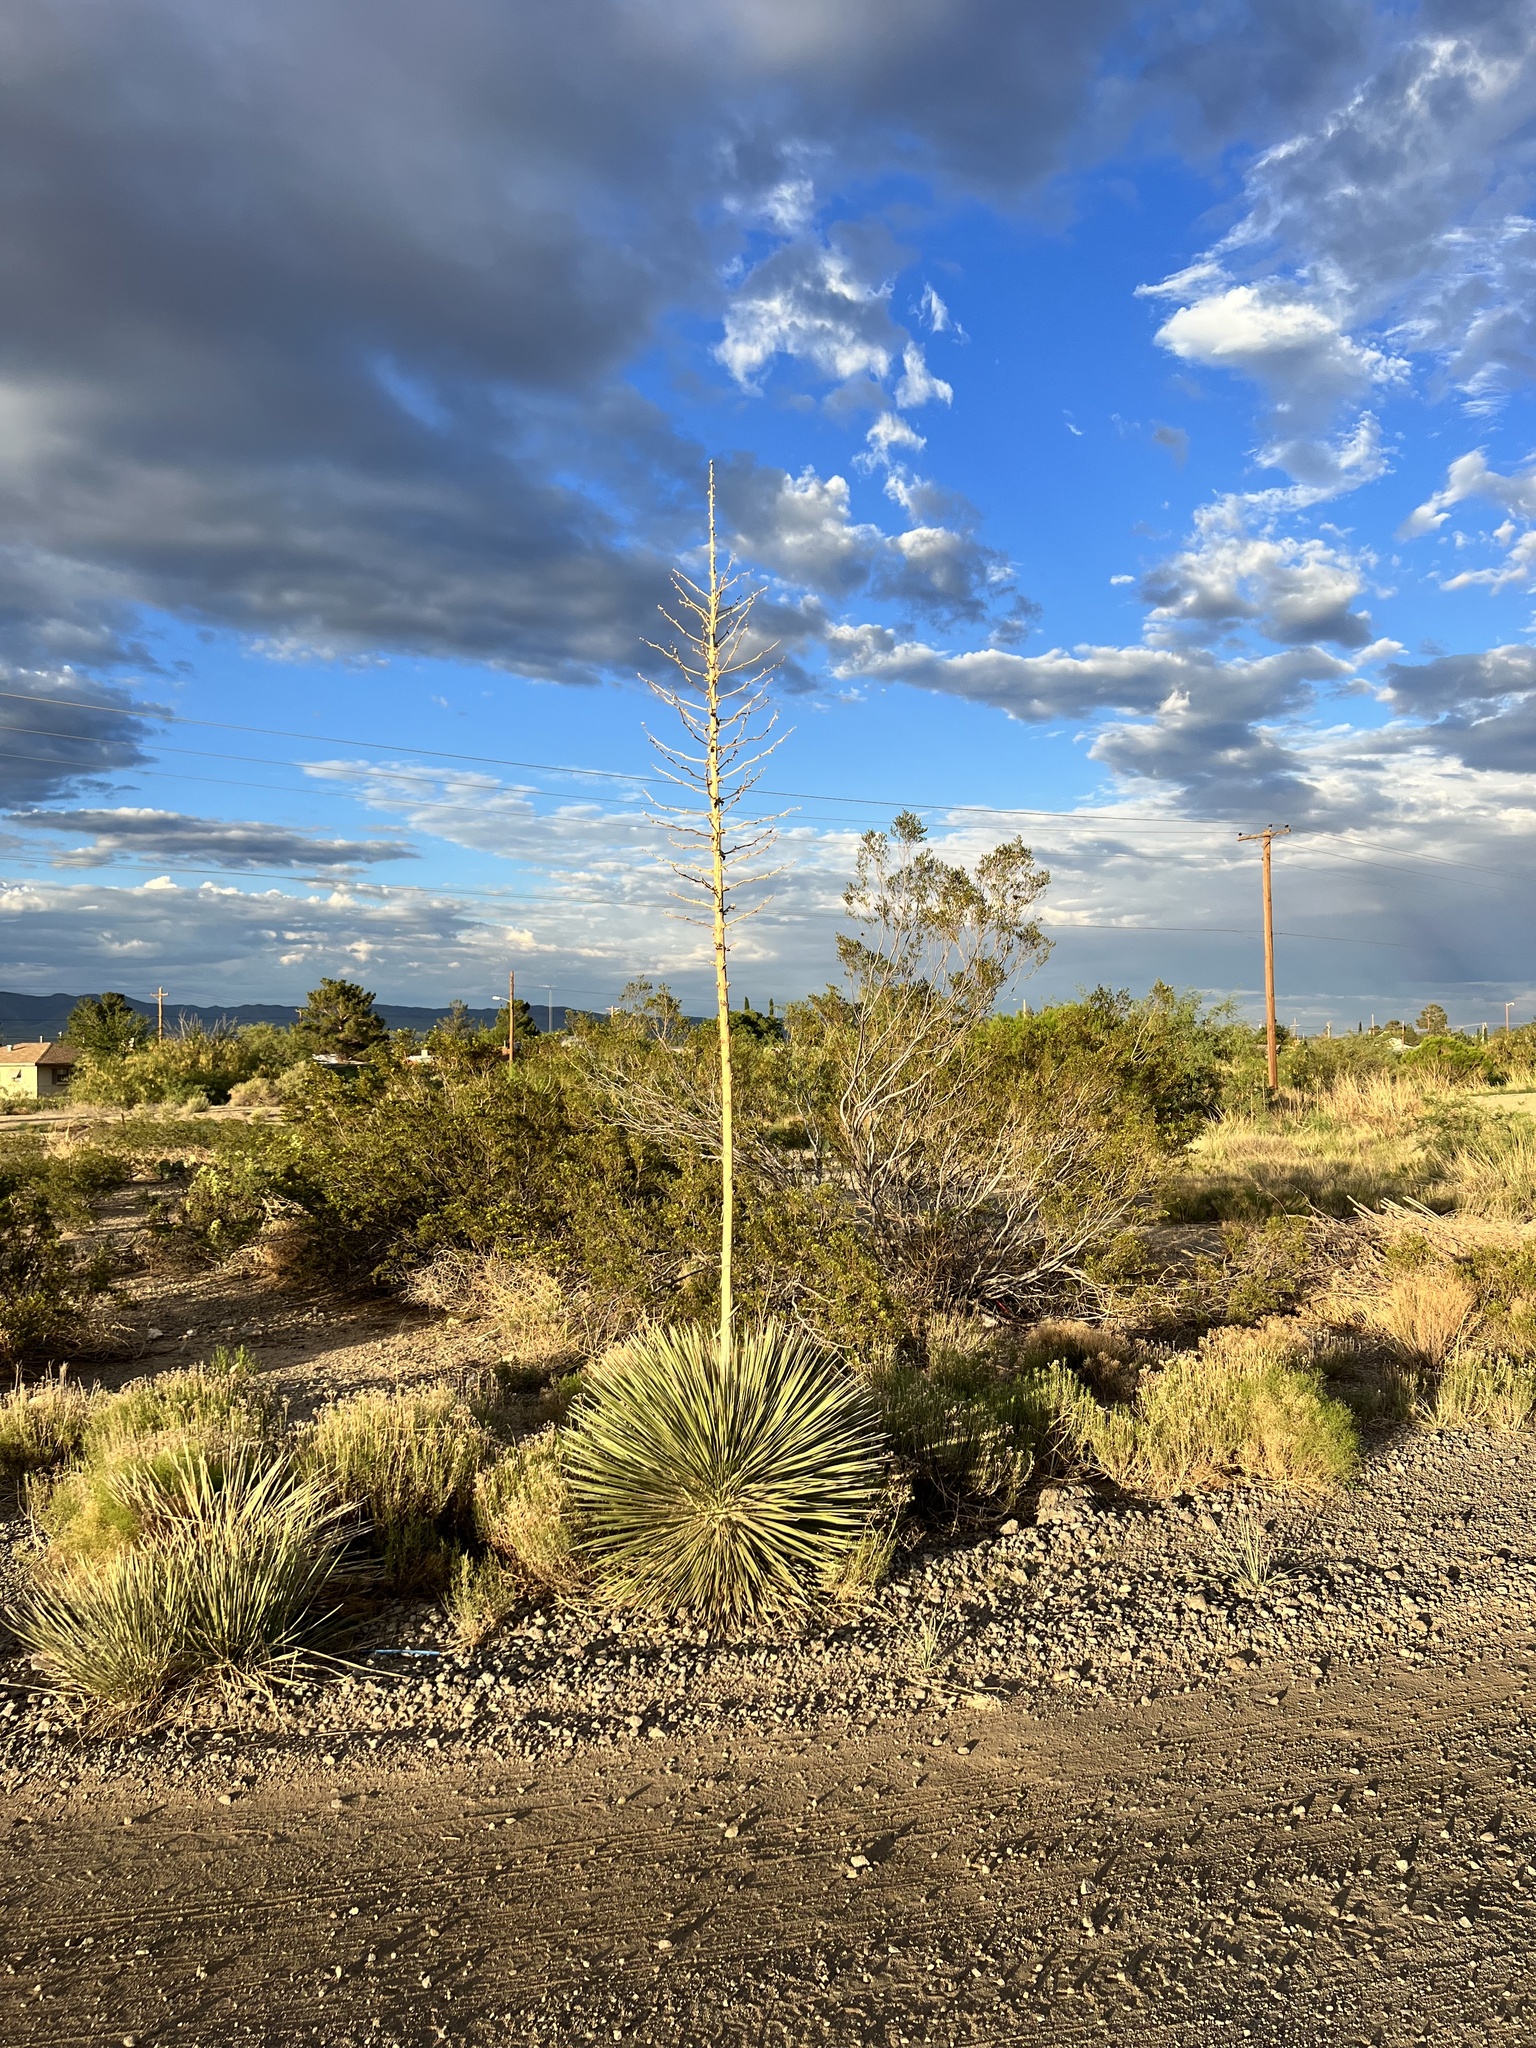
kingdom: Plantae
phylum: Tracheophyta
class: Liliopsida
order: Asparagales
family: Asparagaceae
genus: Yucca
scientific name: Yucca elata
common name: Palmella
